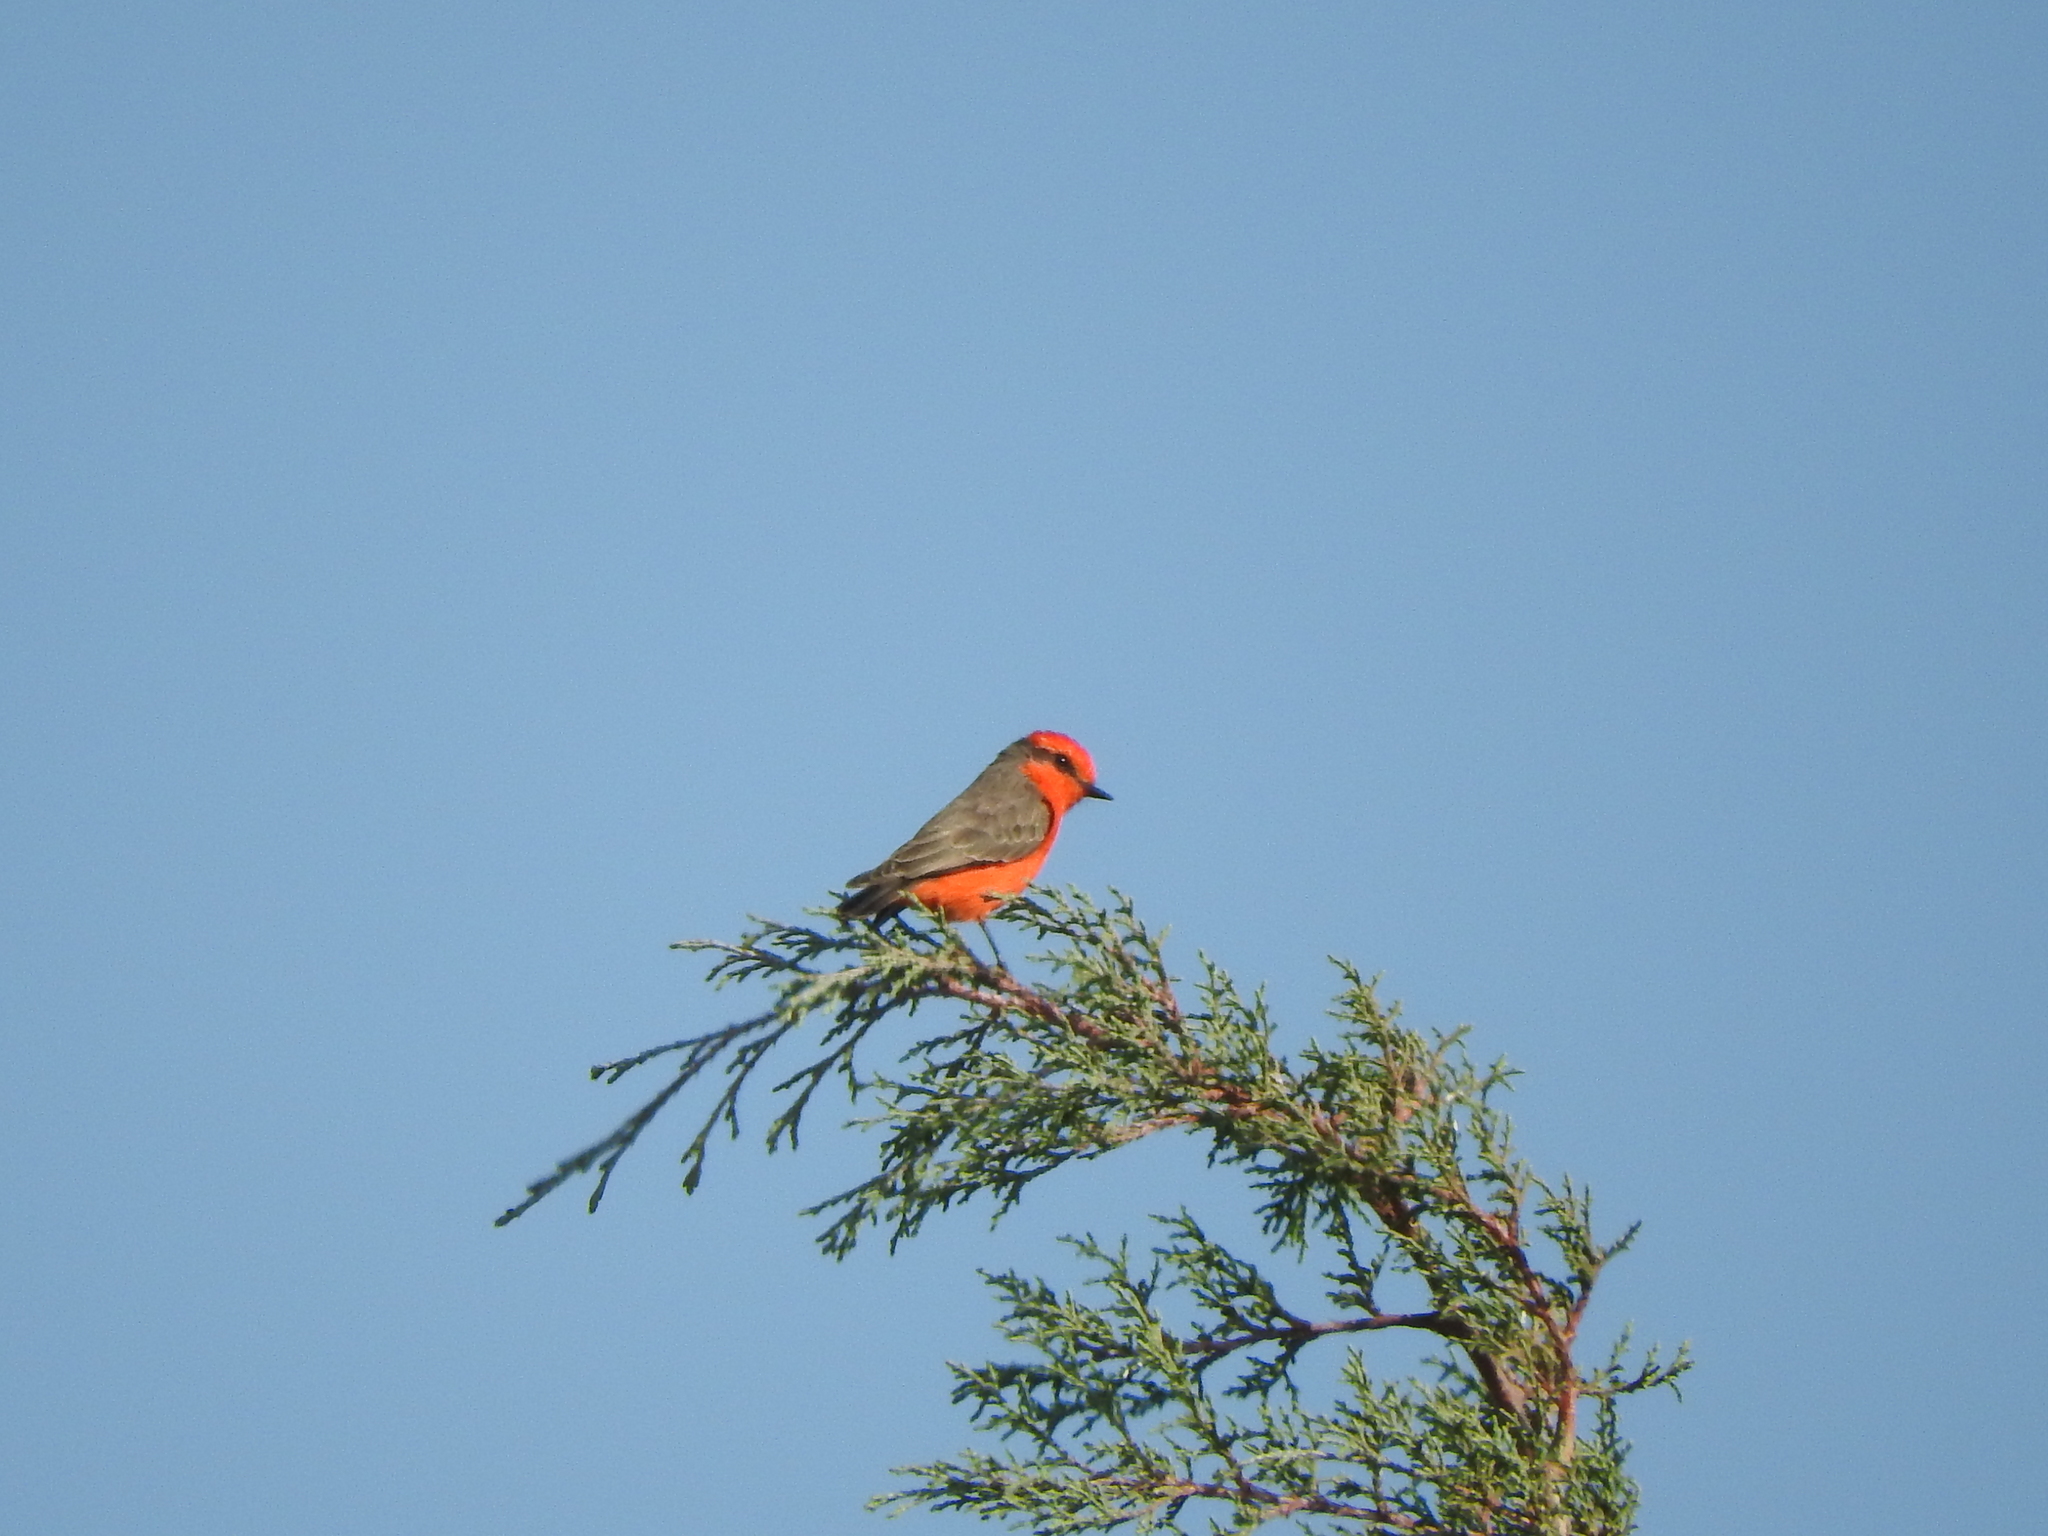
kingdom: Animalia
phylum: Chordata
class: Aves
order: Passeriformes
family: Tyrannidae
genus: Pyrocephalus
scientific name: Pyrocephalus rubinus
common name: Vermilion flycatcher
